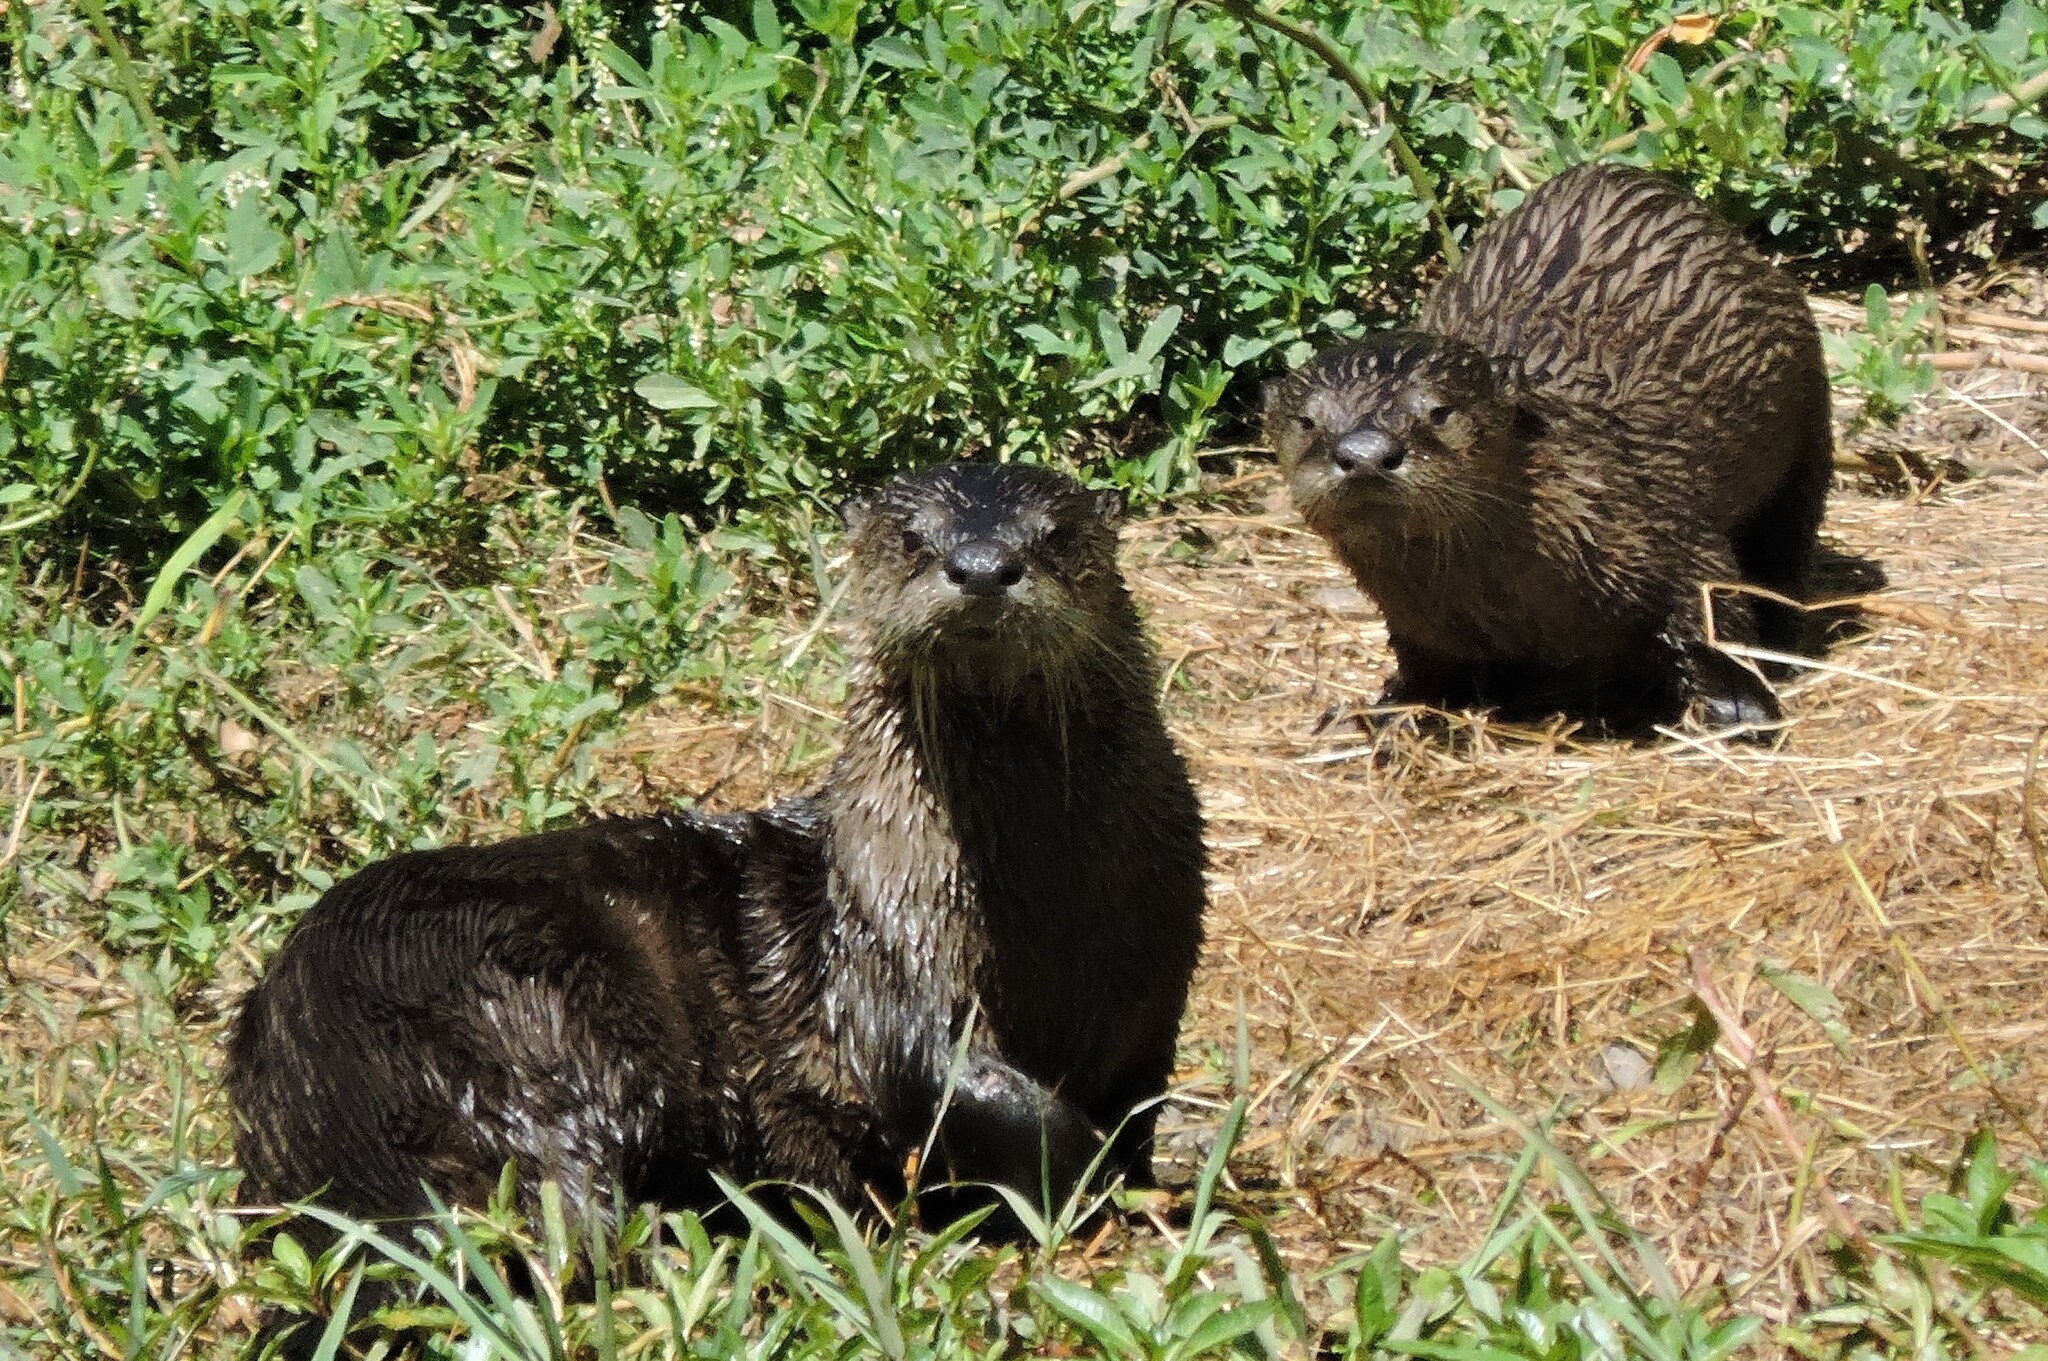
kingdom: Animalia
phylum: Chordata
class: Mammalia
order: Carnivora
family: Mustelidae
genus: Lontra
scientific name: Lontra canadensis
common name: North american river otter
